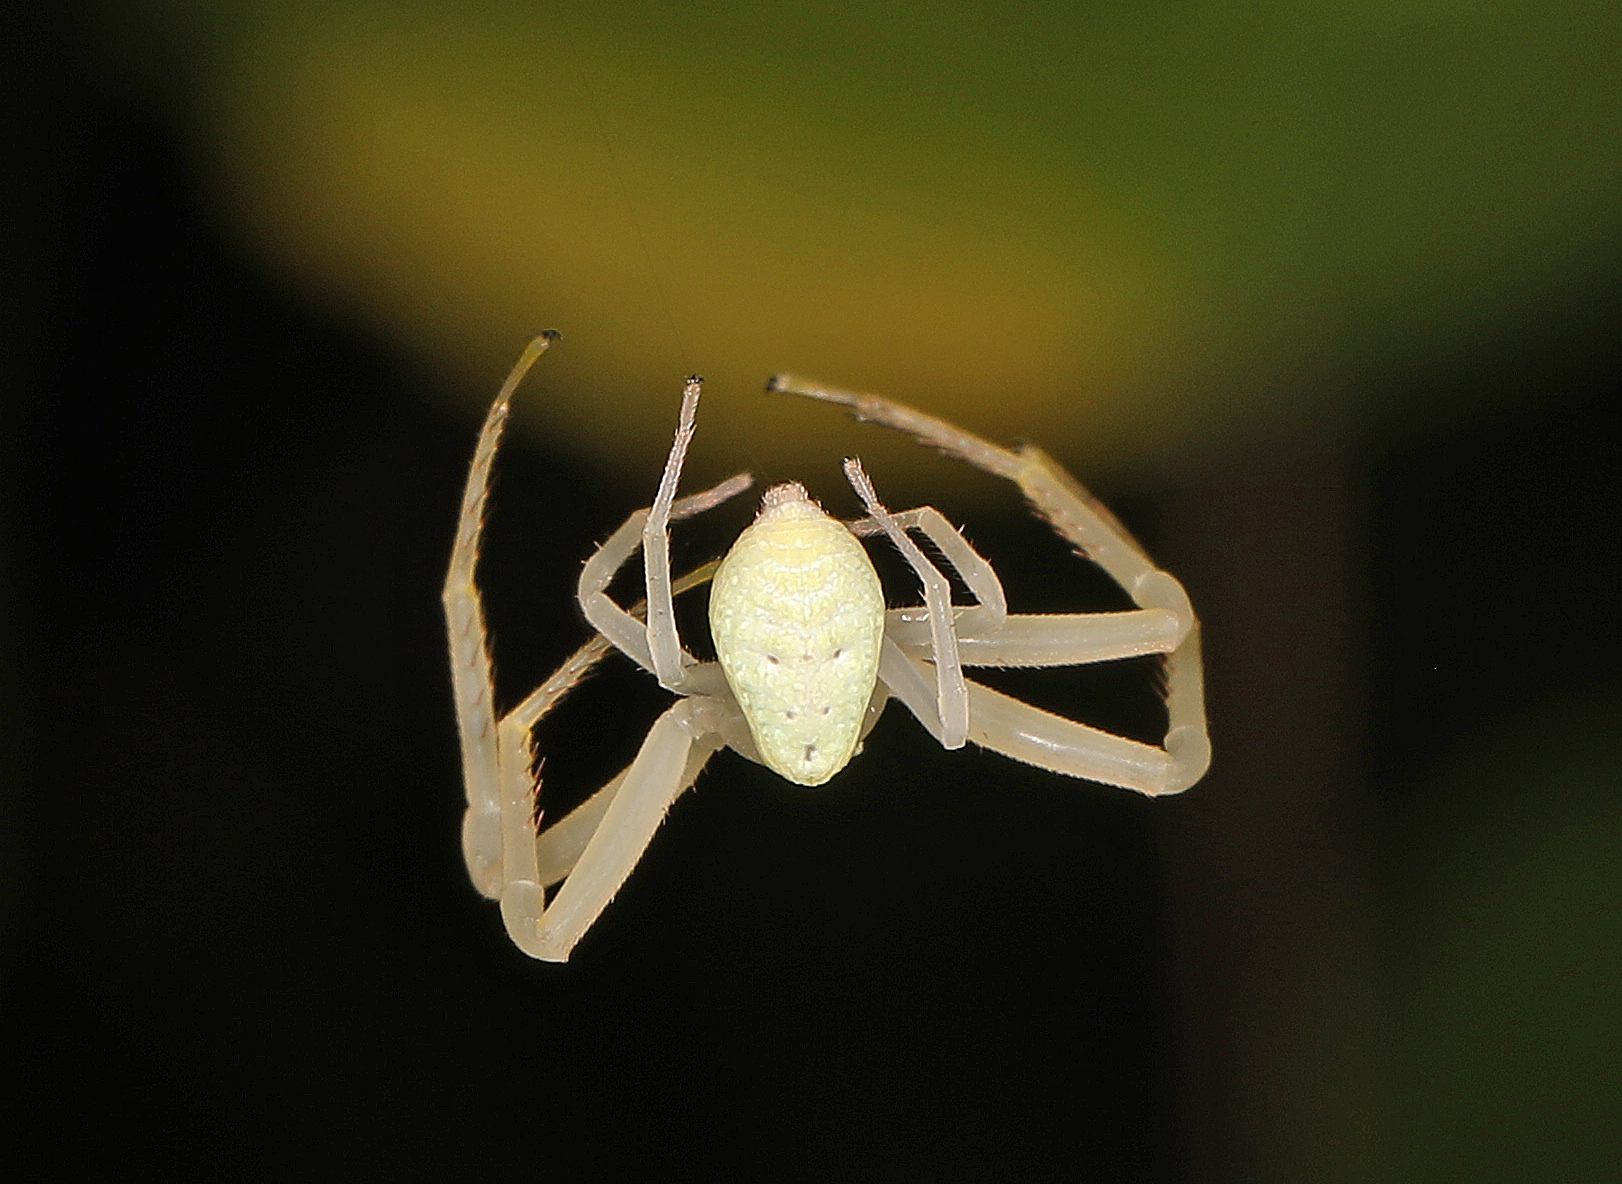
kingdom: Animalia
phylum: Arthropoda
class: Arachnida
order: Araneae
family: Thomisidae
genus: Misumessus
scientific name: Misumessus oblongus
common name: American green crab spider
